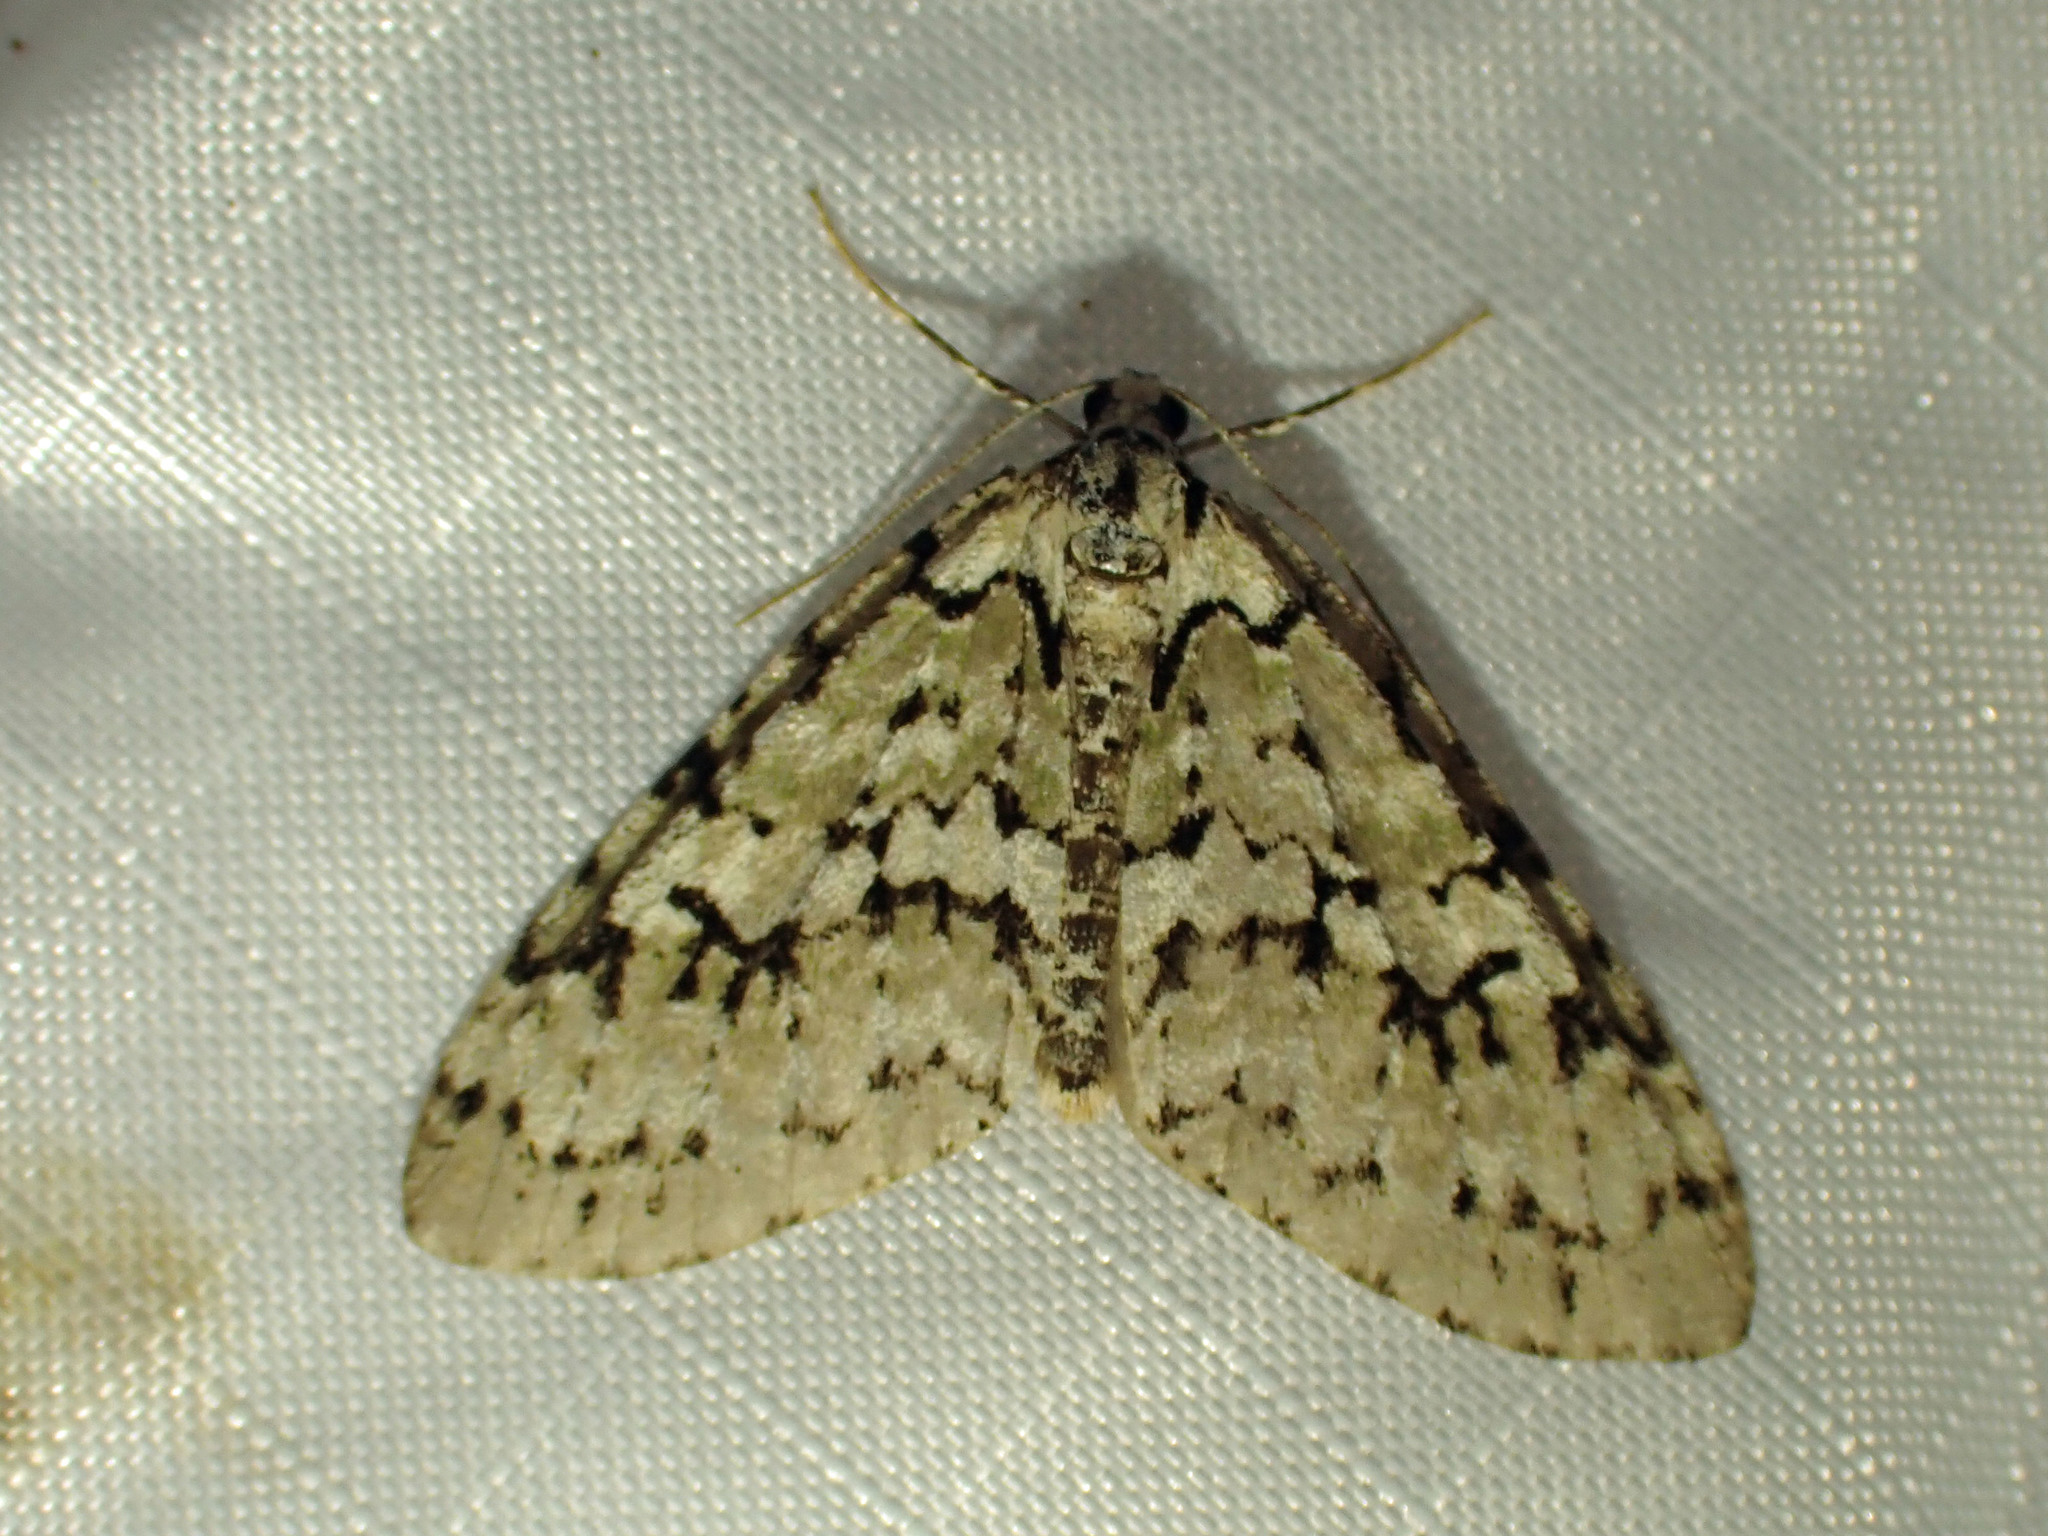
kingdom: Animalia
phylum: Arthropoda
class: Insecta
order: Lepidoptera
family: Geometridae
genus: Cladara
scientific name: Cladara atroliturata
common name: Scribbler
